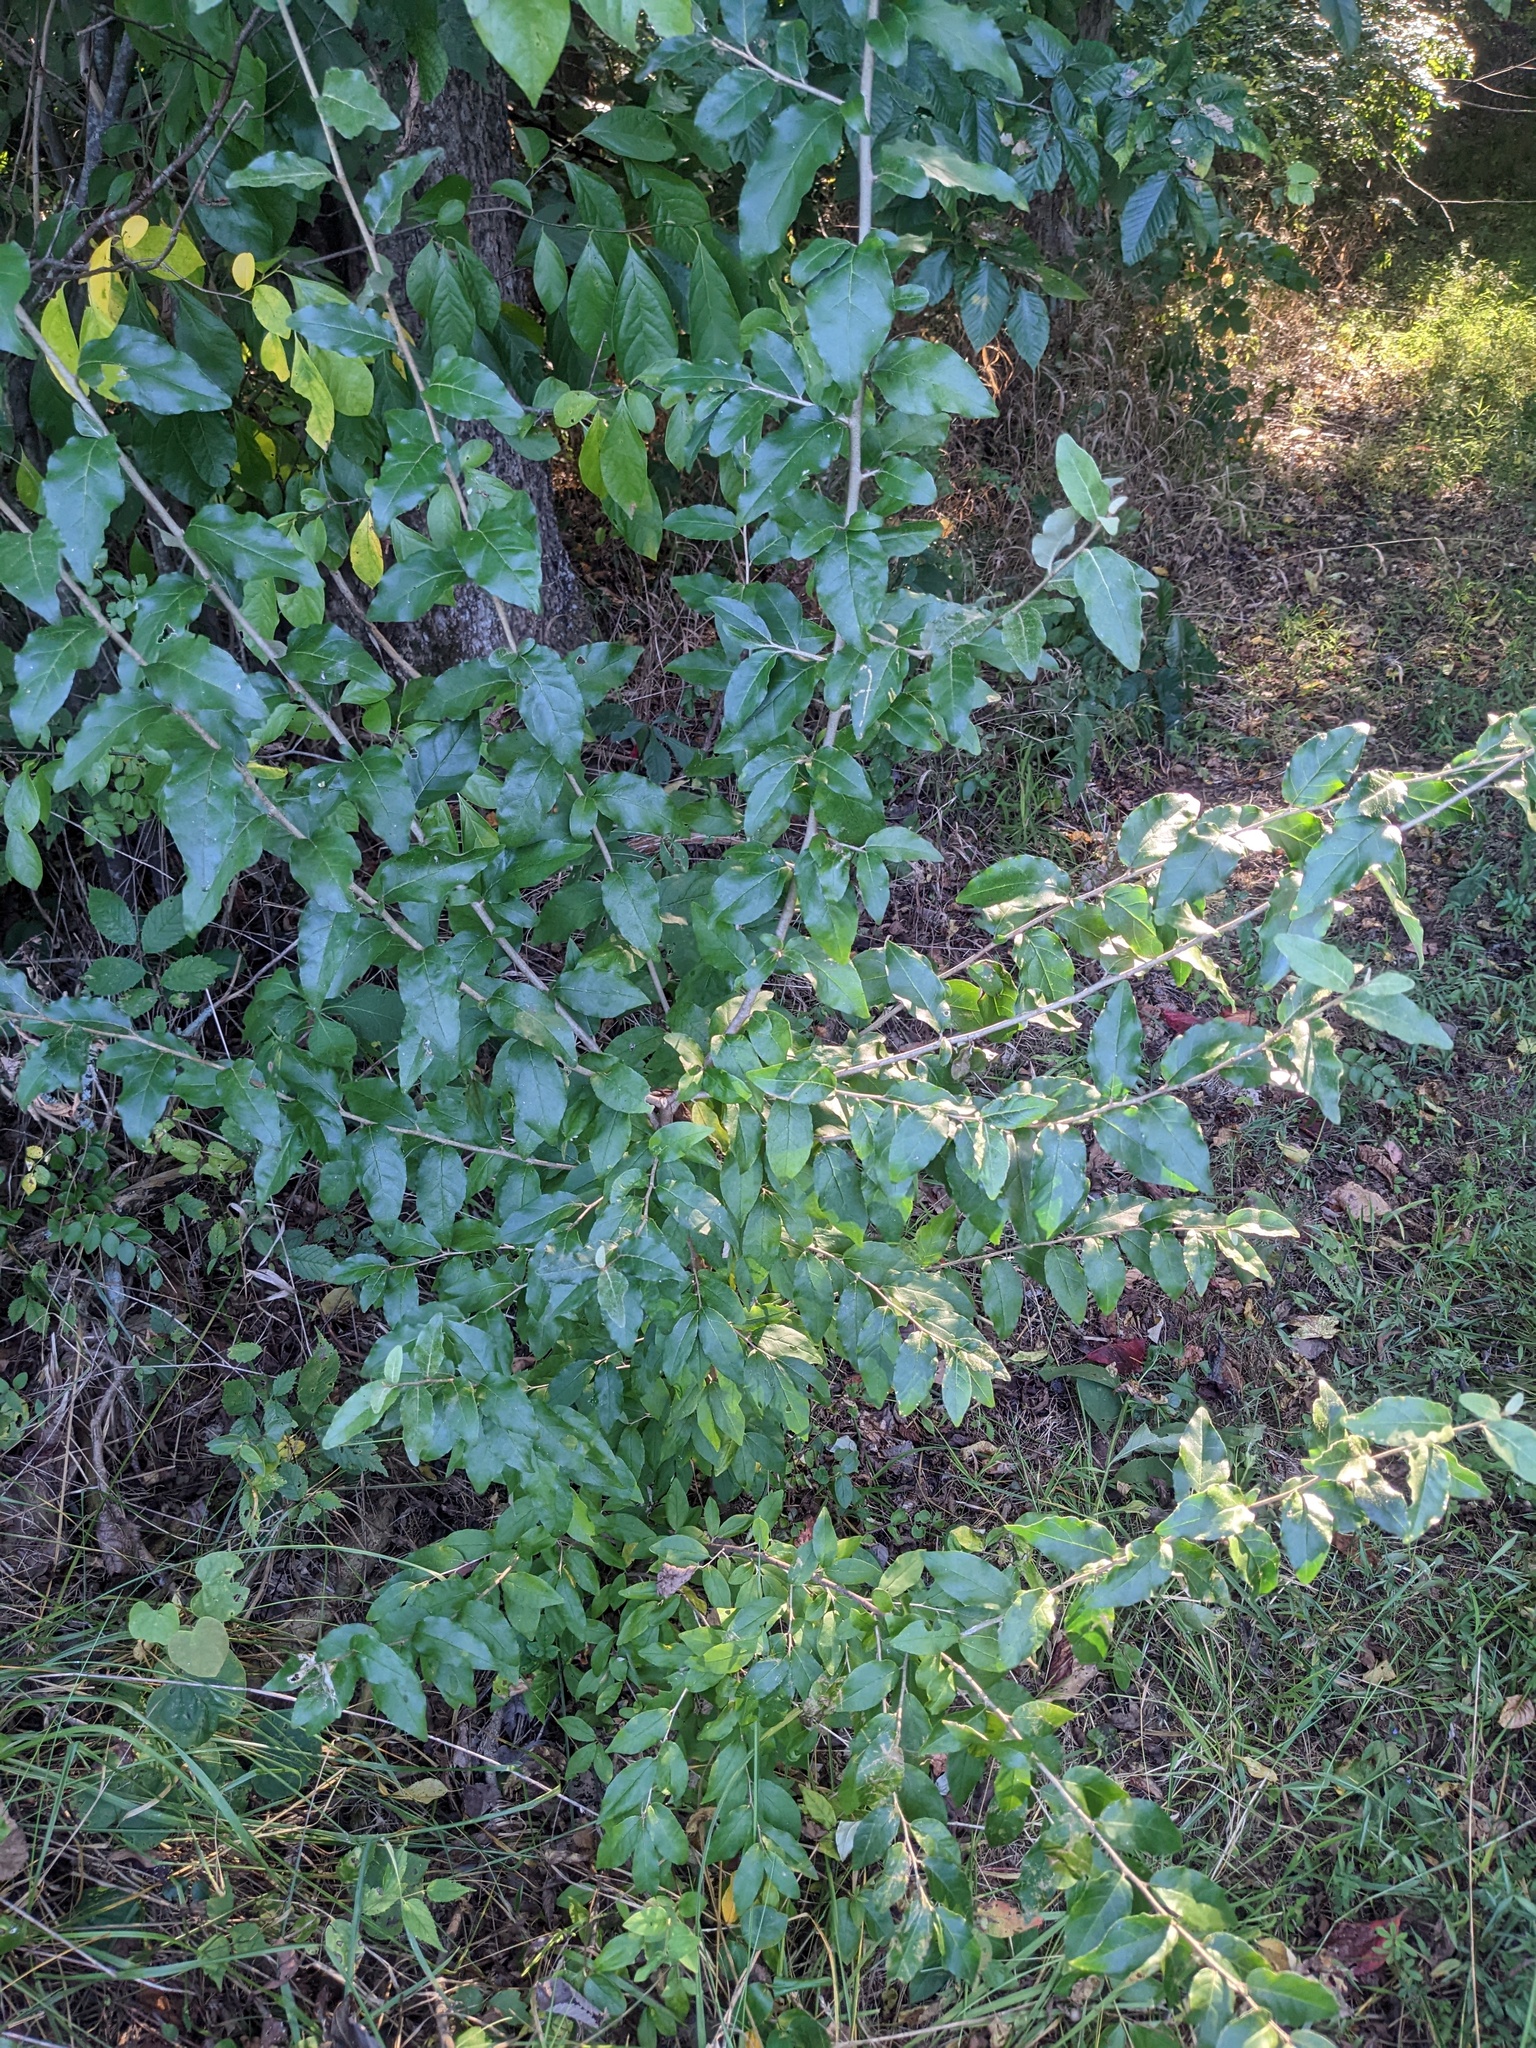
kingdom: Plantae
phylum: Tracheophyta
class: Magnoliopsida
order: Rosales
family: Elaeagnaceae
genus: Elaeagnus
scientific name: Elaeagnus umbellata
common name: Autumn olive
